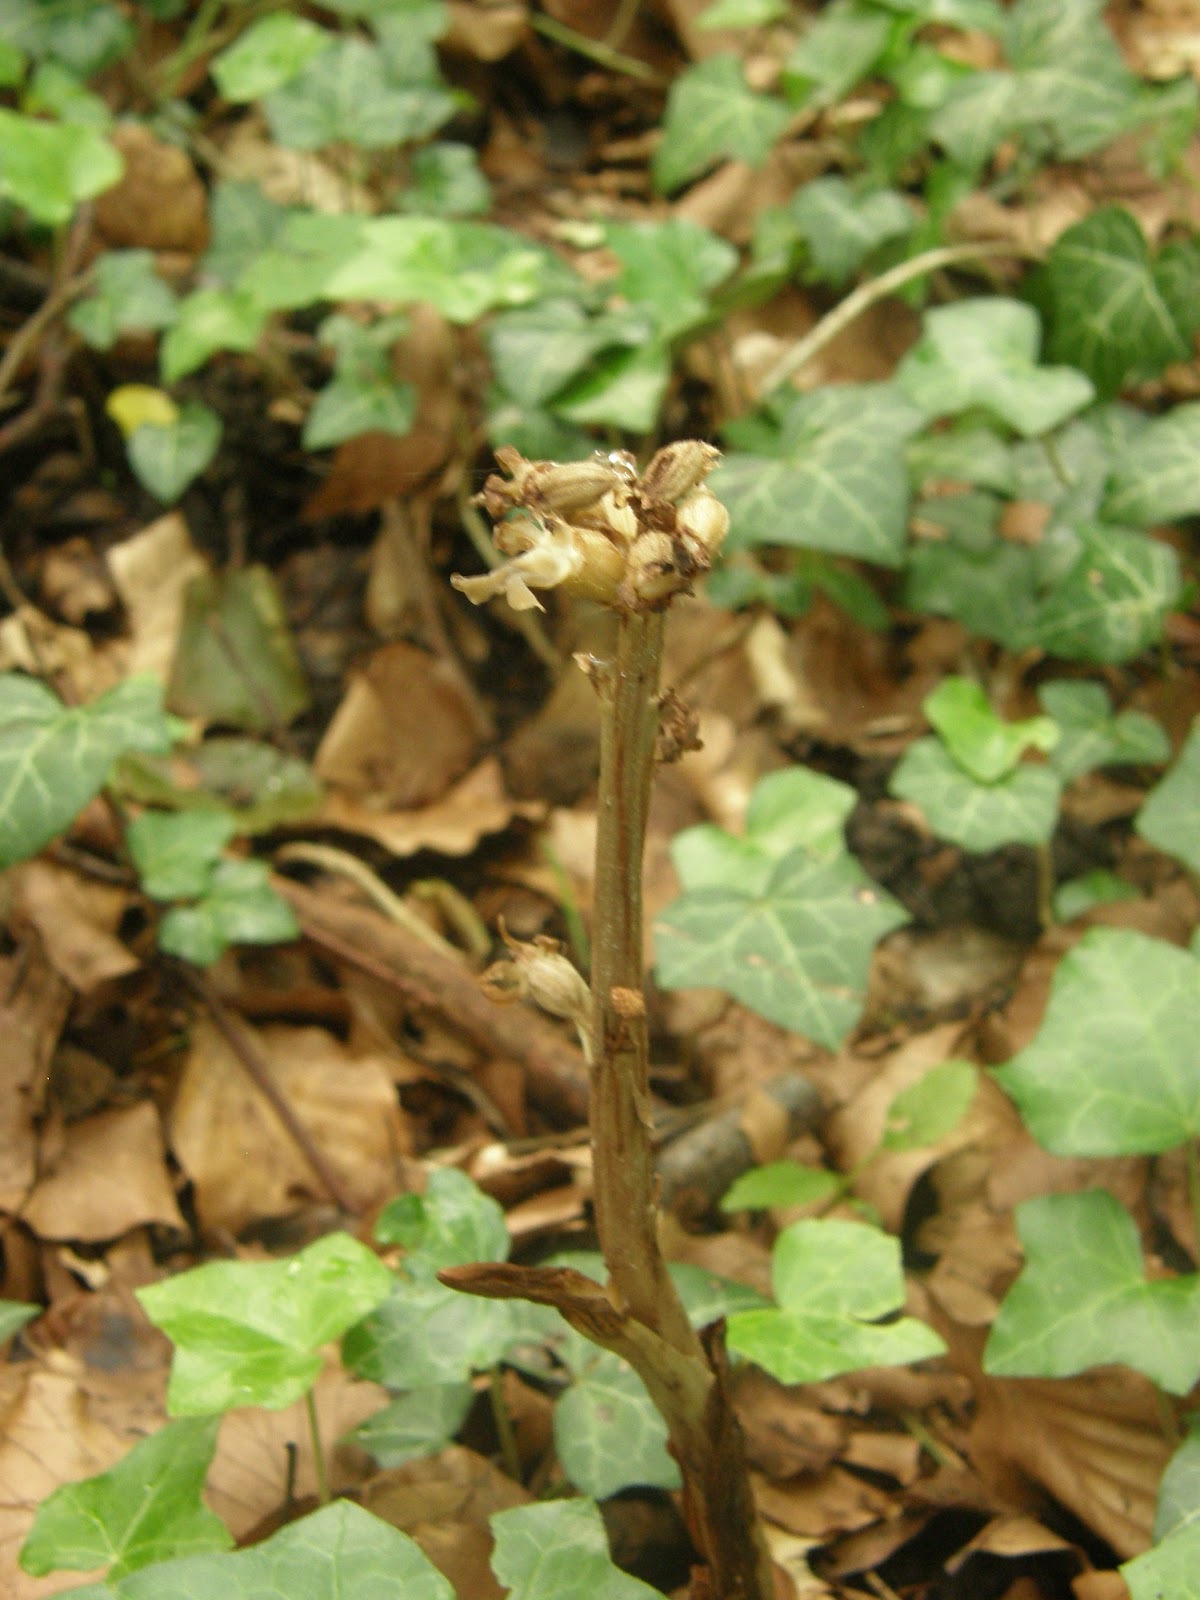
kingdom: Plantae
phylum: Tracheophyta
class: Liliopsida
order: Asparagales
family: Orchidaceae
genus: Neottia
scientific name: Neottia nidus-avis
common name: Bird's-nest orchid
